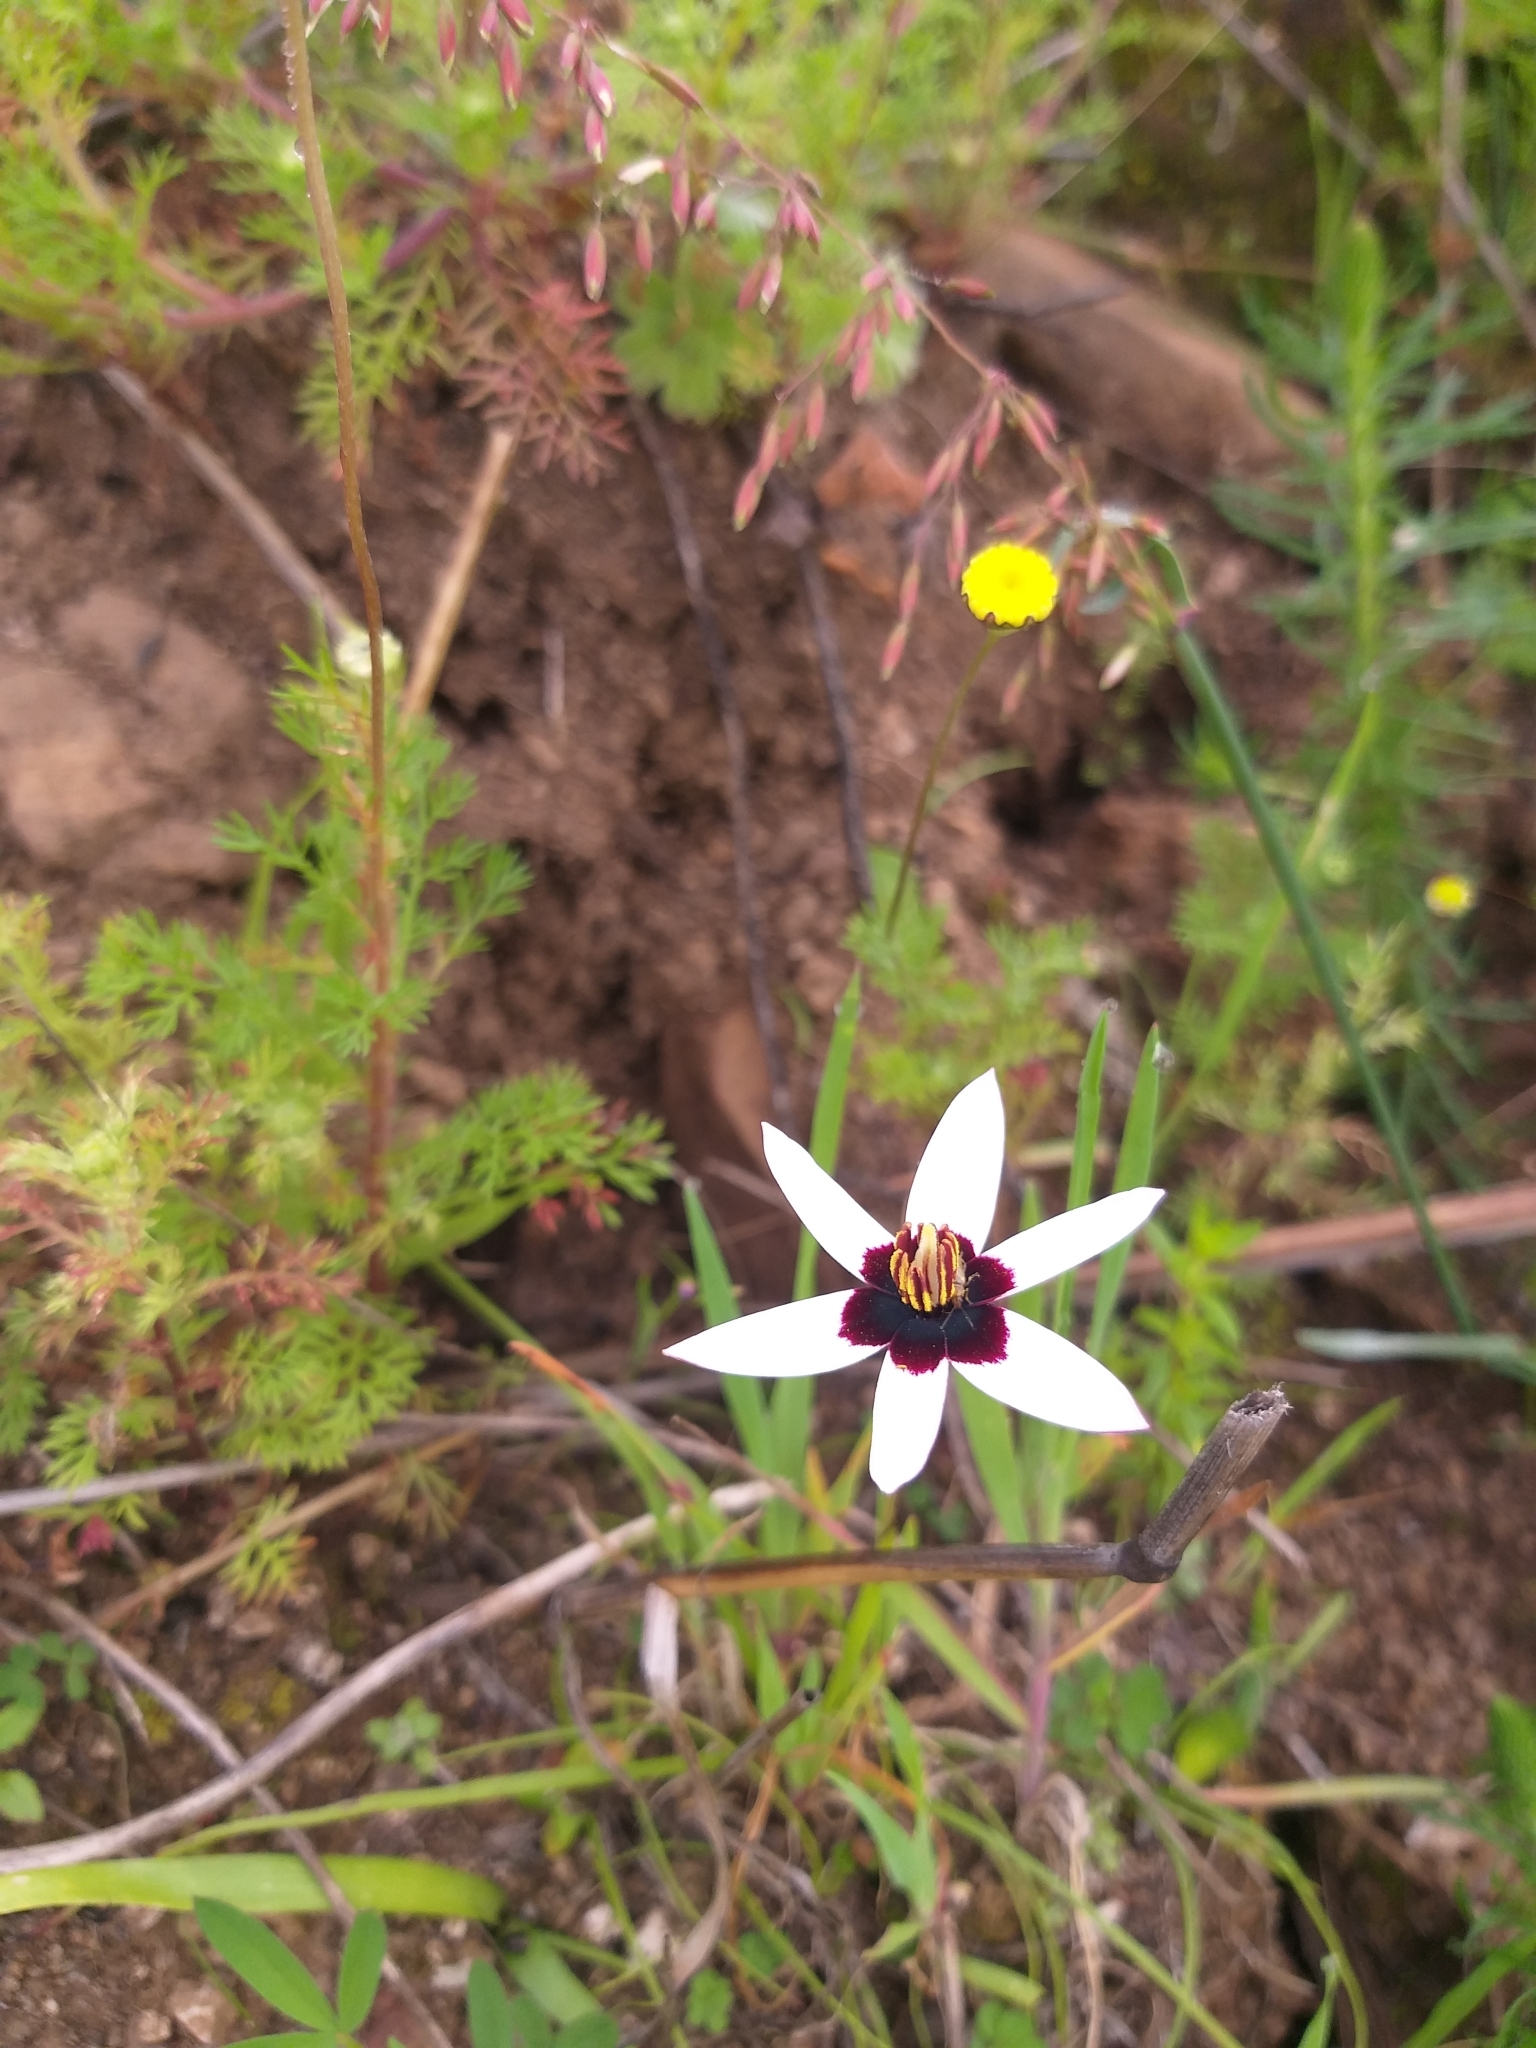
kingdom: Plantae
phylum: Tracheophyta
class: Liliopsida
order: Asparagales
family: Hypoxidaceae
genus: Pauridia
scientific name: Pauridia capensis
